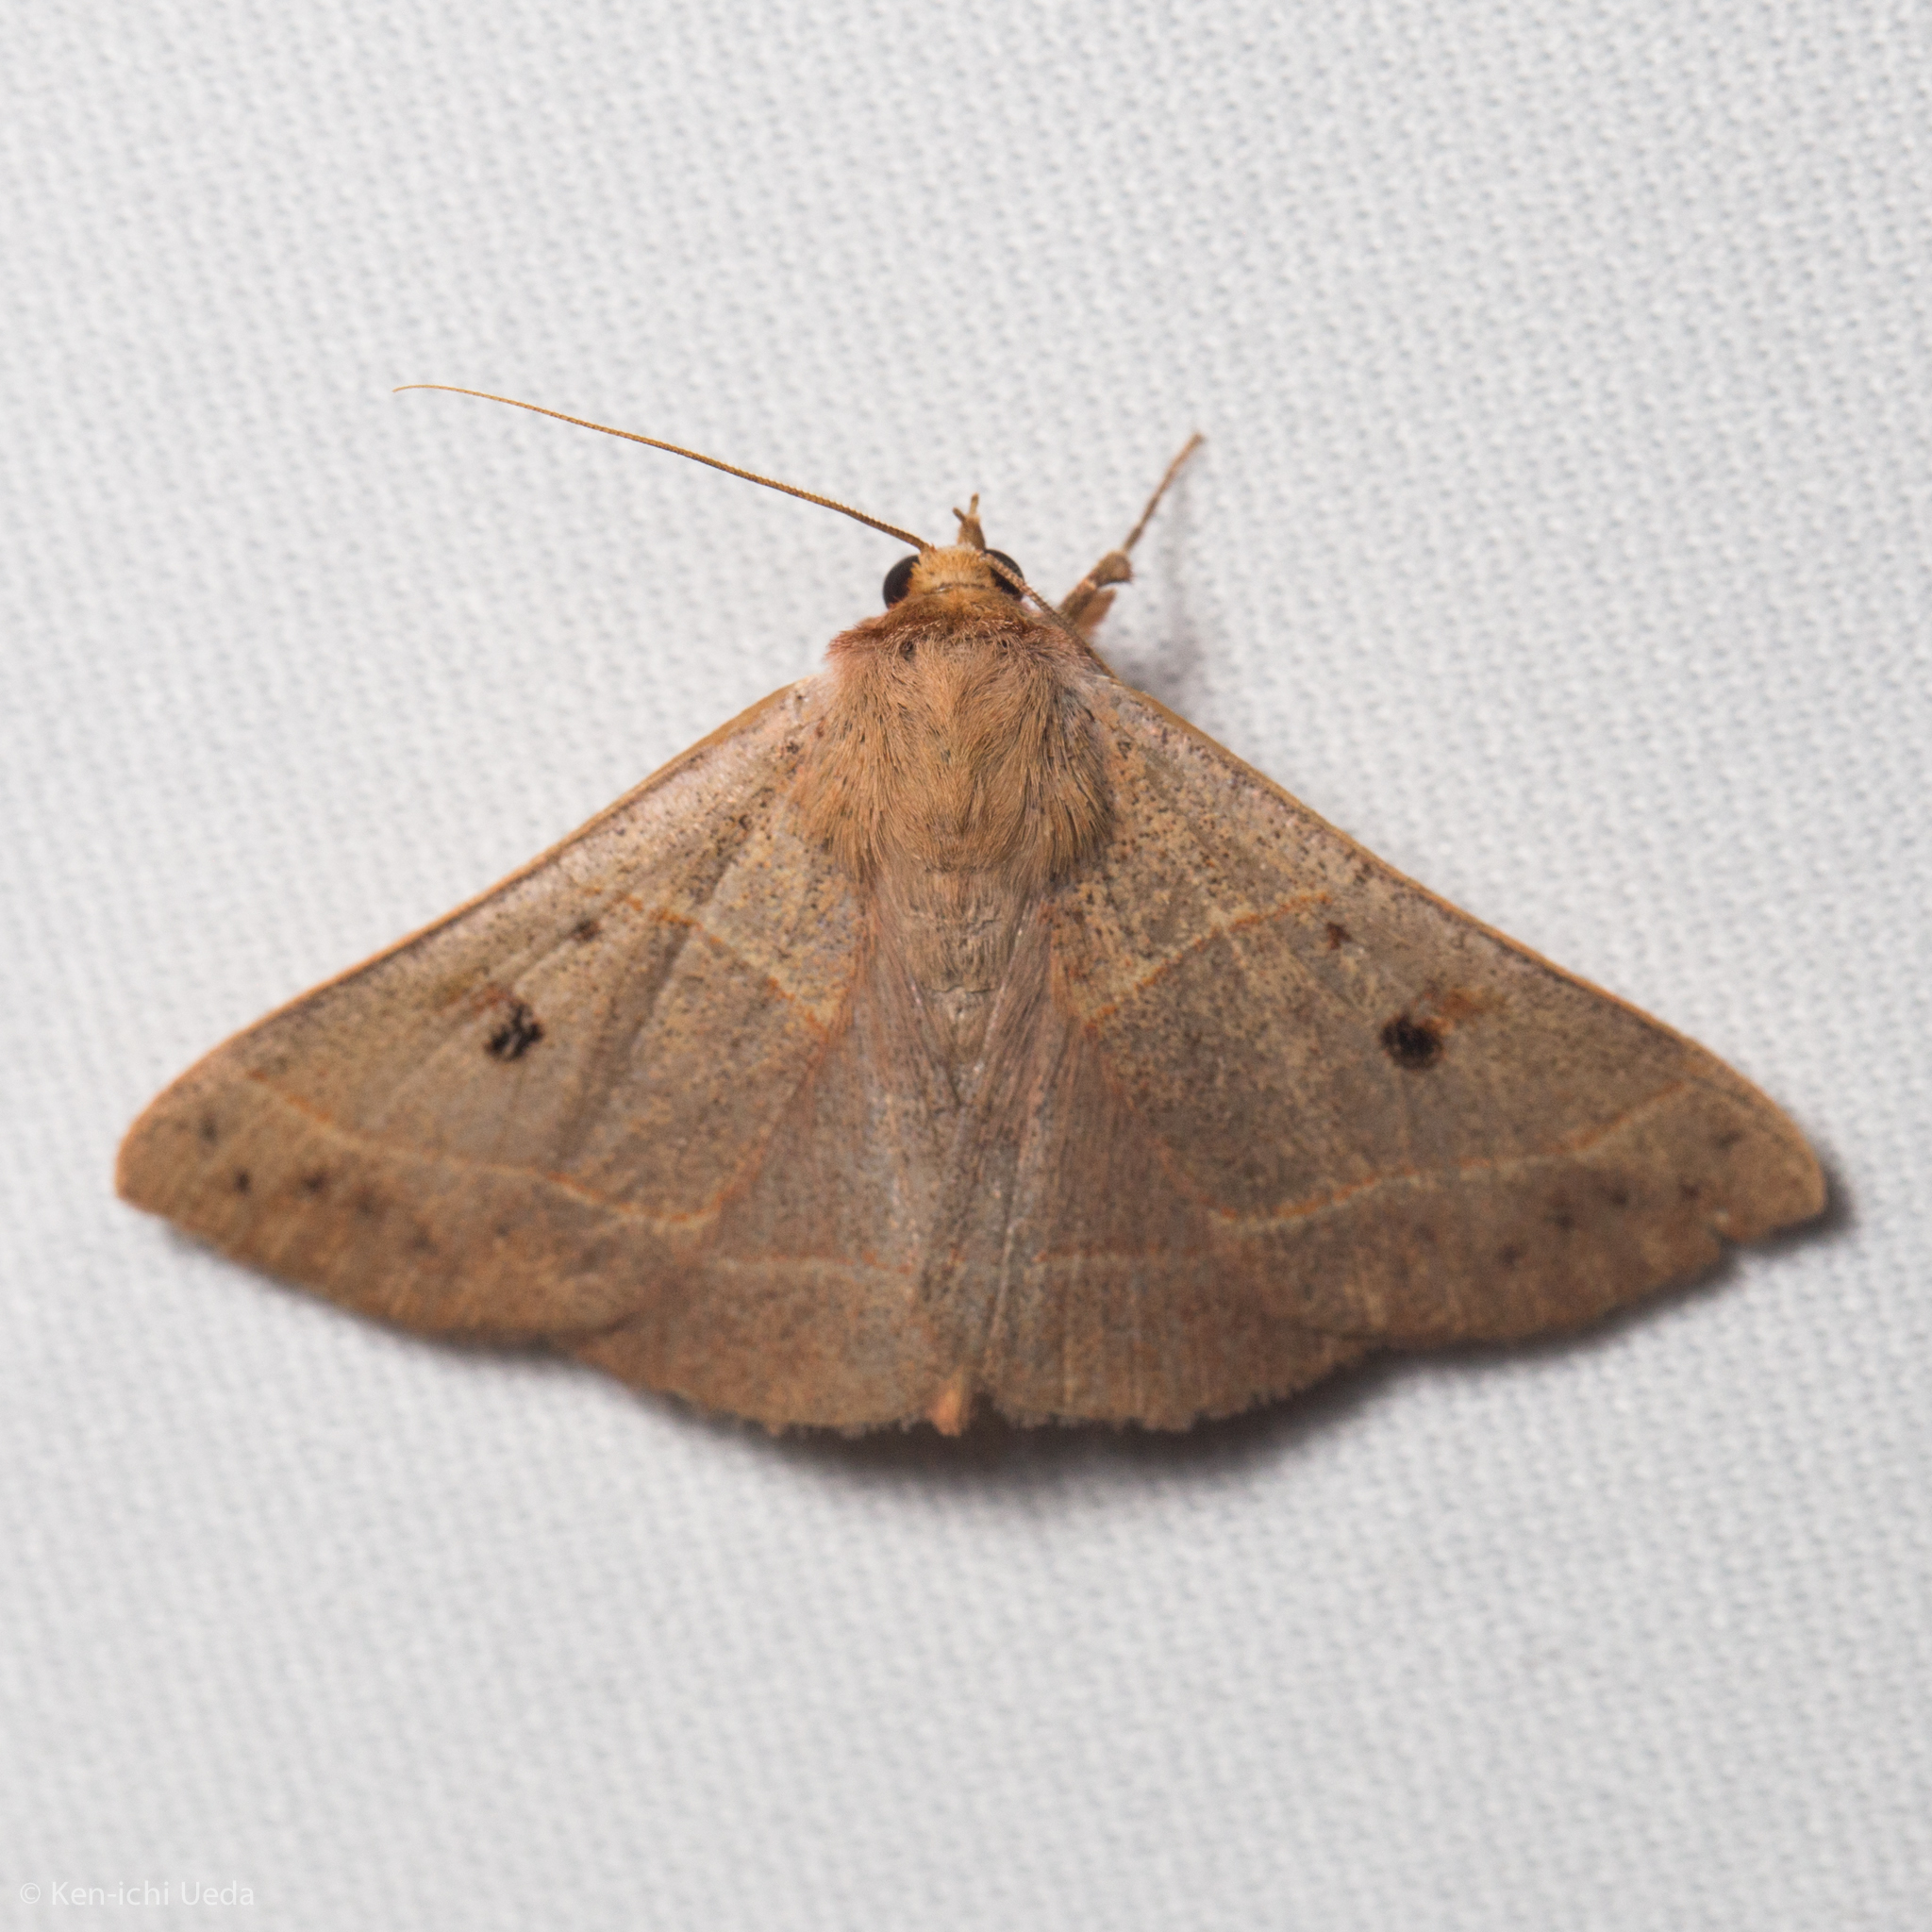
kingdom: Animalia
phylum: Arthropoda
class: Insecta
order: Lepidoptera
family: Erebidae
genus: Panopoda
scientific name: Panopoda rufimargo
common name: Red-lined panopoda moth
